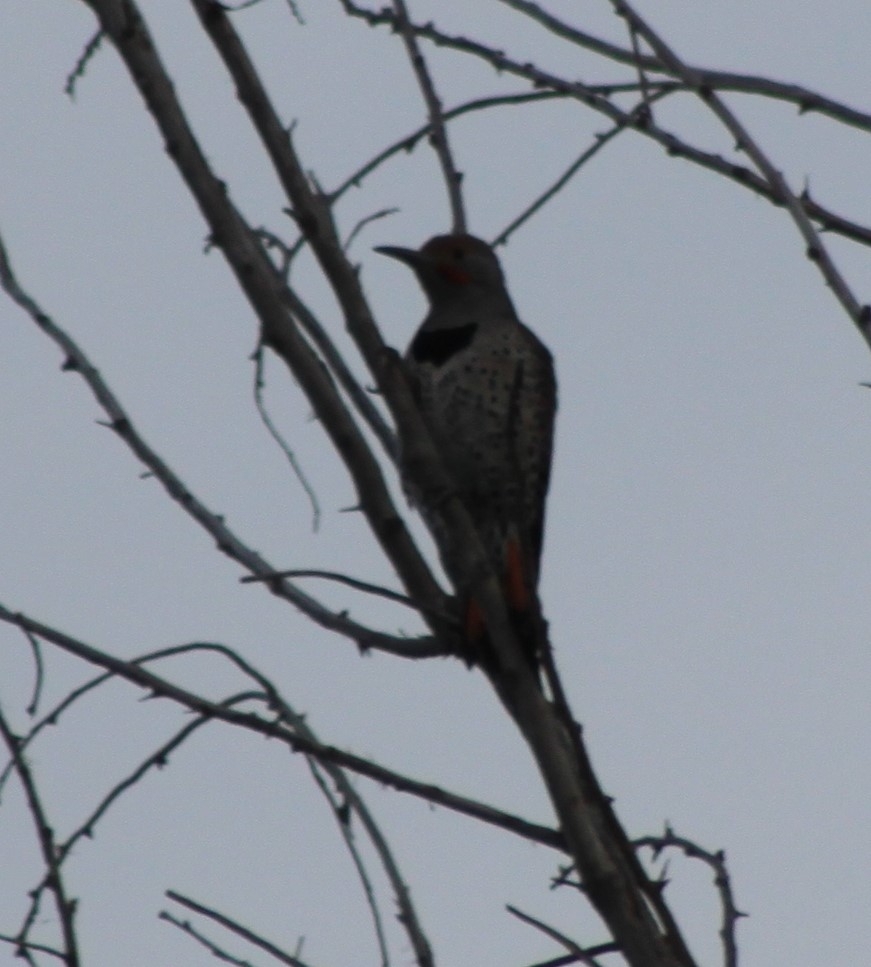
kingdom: Animalia
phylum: Chordata
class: Aves
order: Piciformes
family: Picidae
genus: Colaptes
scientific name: Colaptes auratus
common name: Northern flicker
